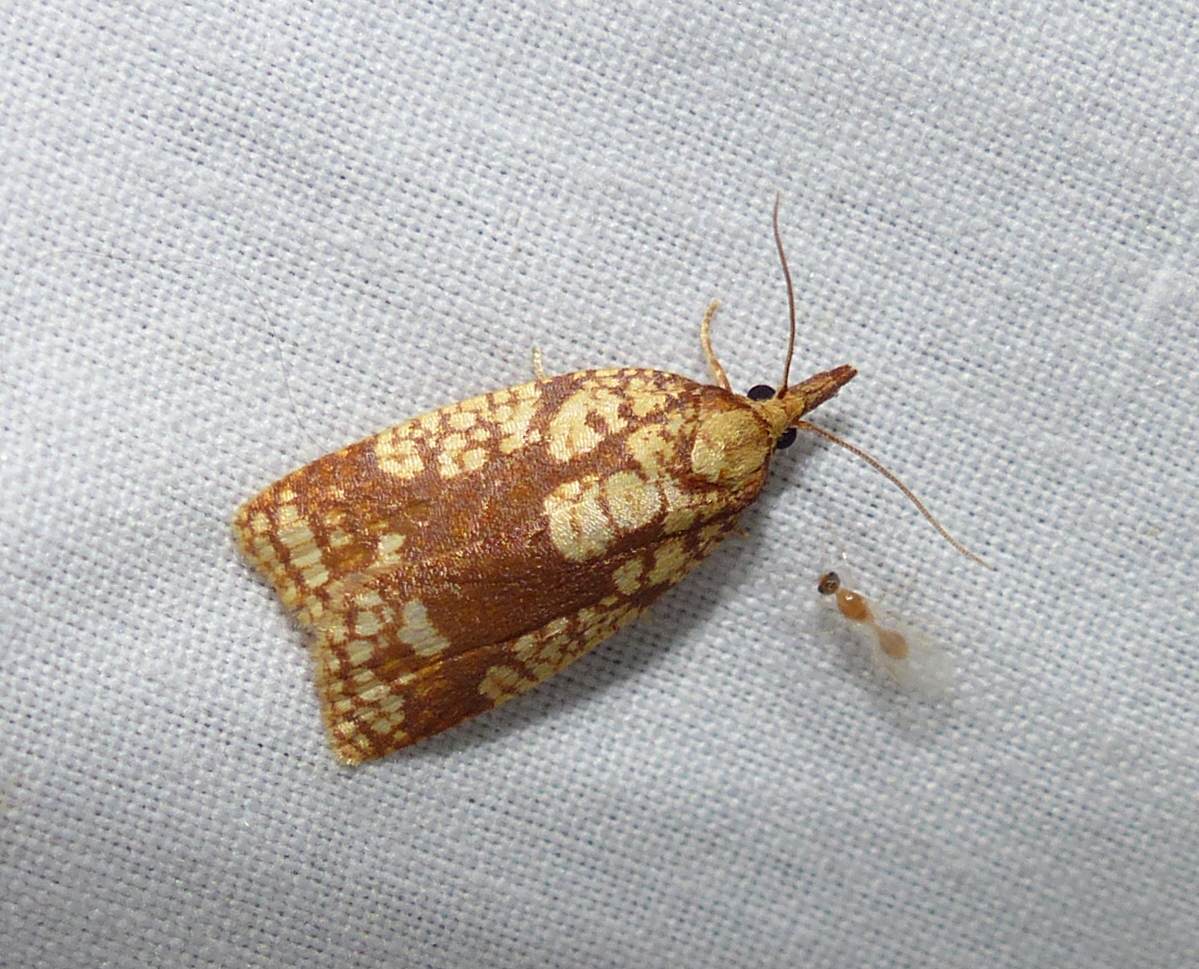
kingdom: Animalia
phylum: Arthropoda
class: Insecta
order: Lepidoptera
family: Tortricidae
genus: Cenopis
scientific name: Cenopis ferreana
